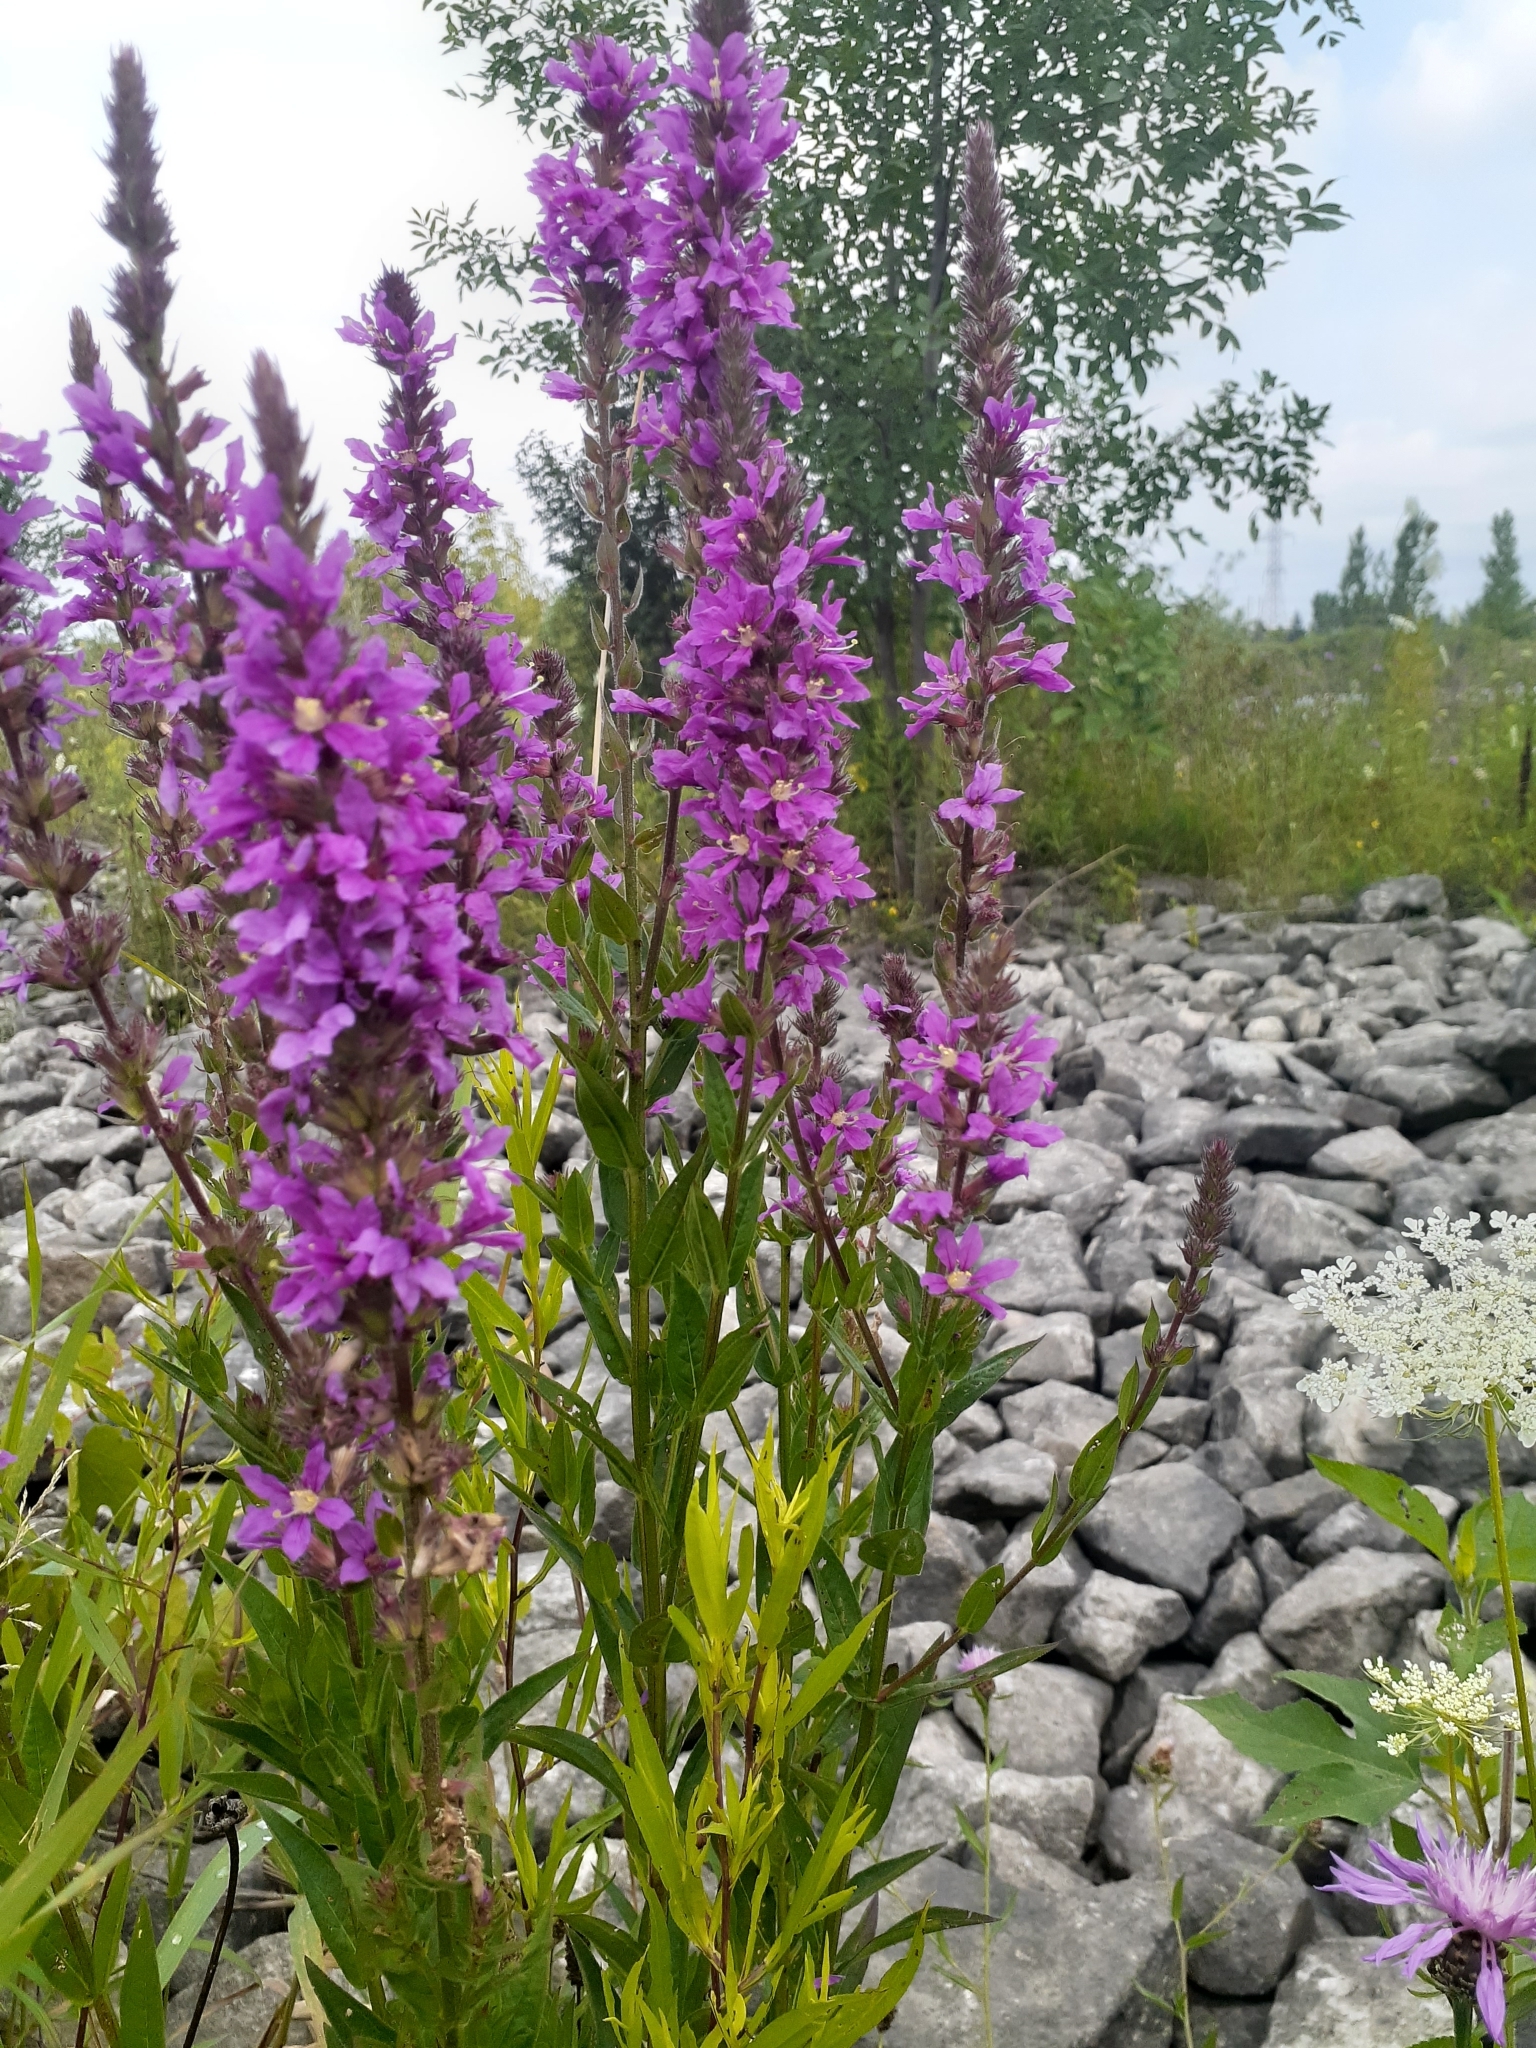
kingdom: Plantae
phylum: Tracheophyta
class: Magnoliopsida
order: Myrtales
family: Lythraceae
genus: Lythrum
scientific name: Lythrum salicaria
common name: Purple loosestrife
